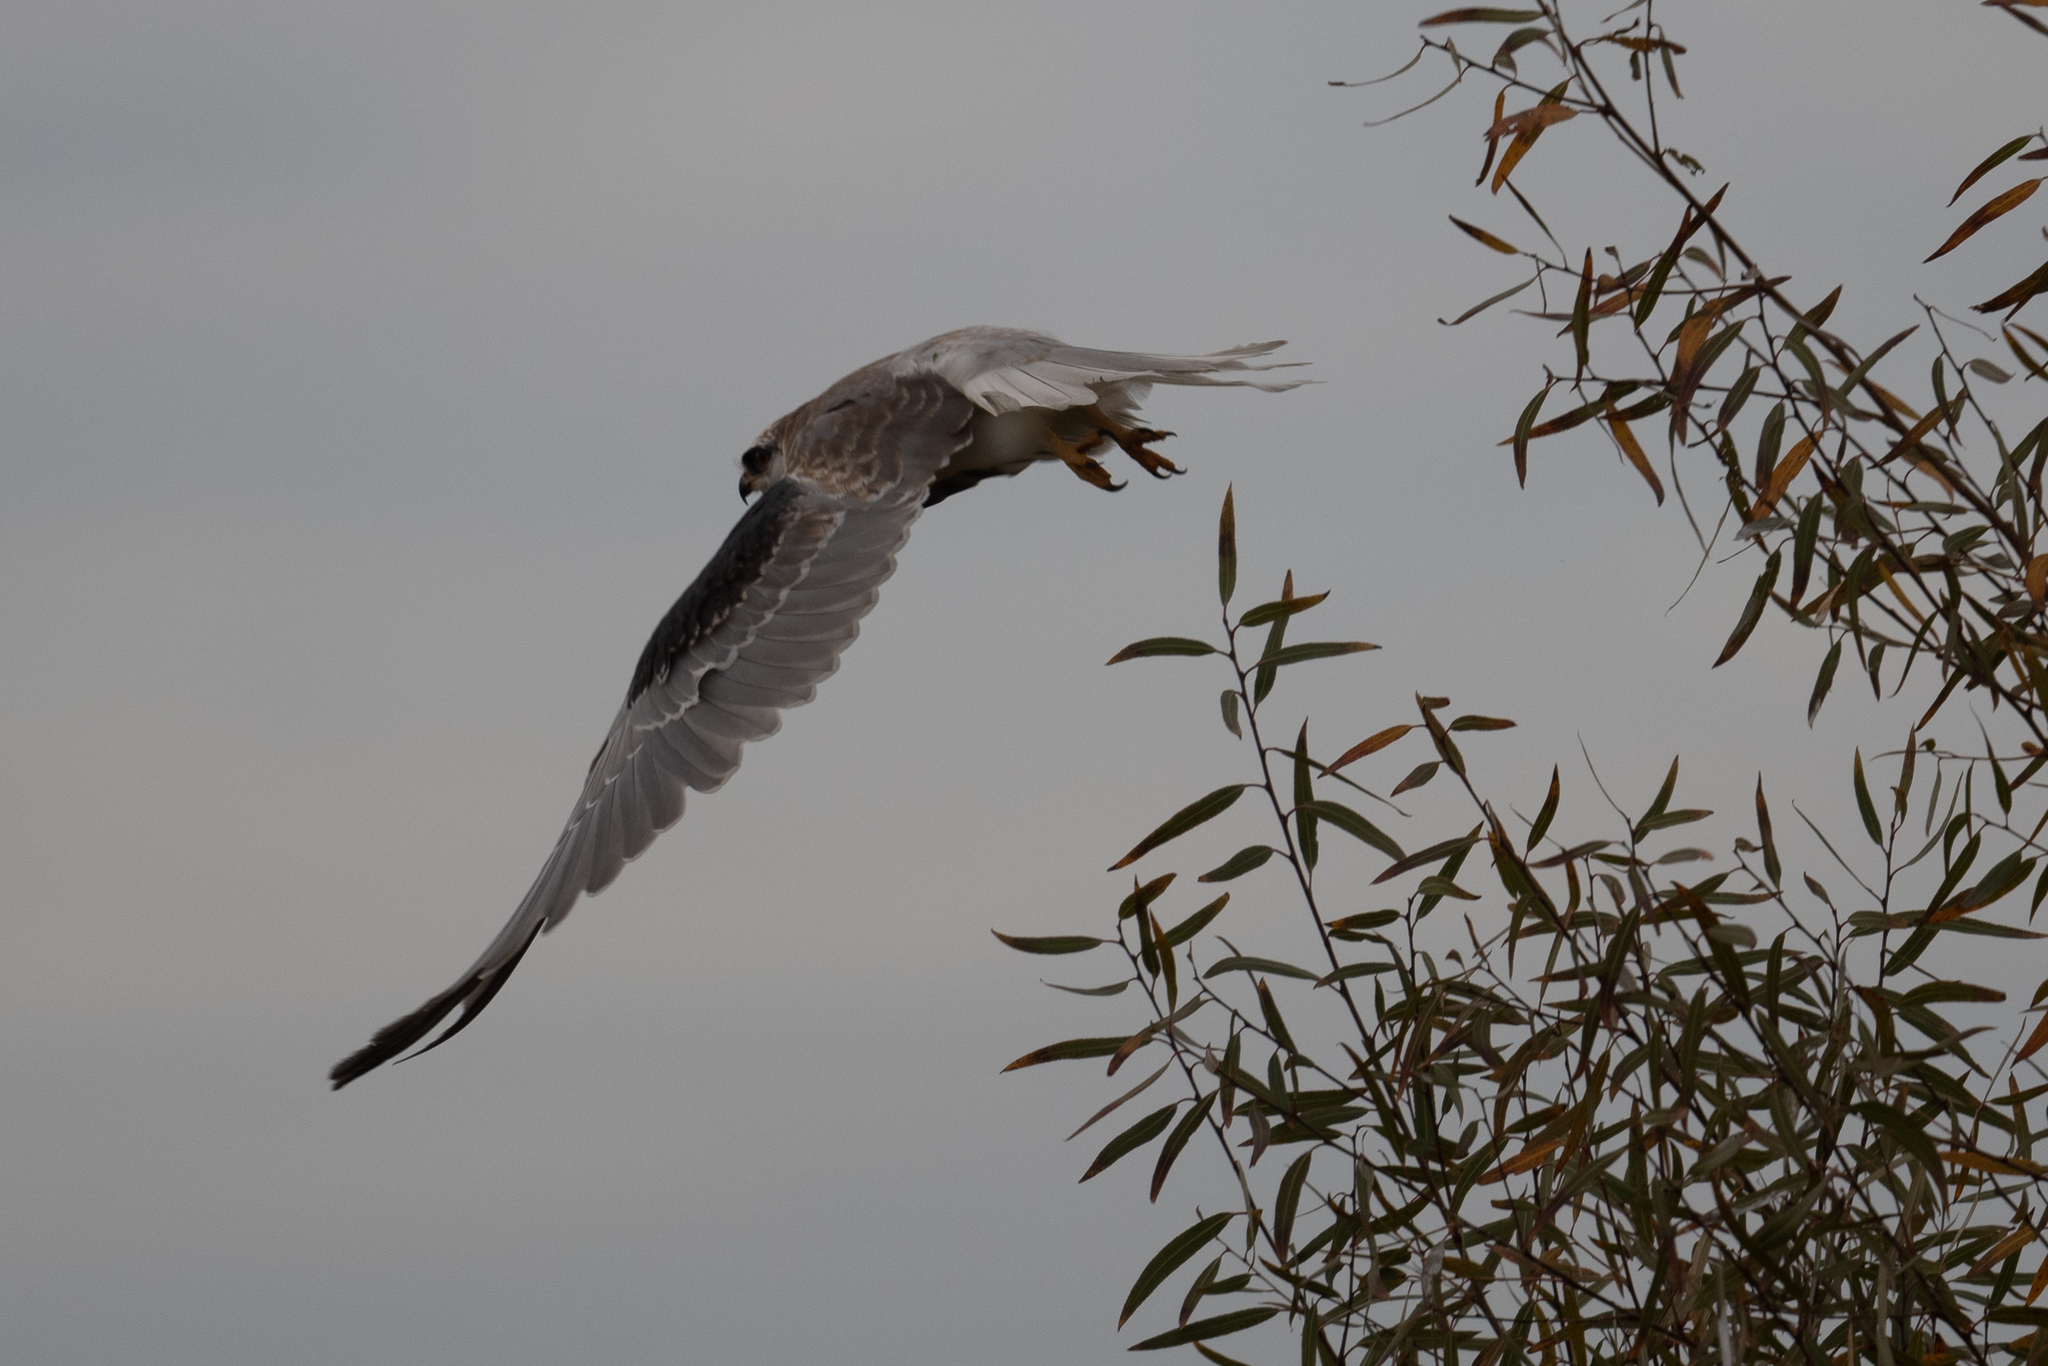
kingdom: Animalia
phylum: Chordata
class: Aves
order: Accipitriformes
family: Accipitridae
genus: Elanus
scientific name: Elanus leucurus
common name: White-tailed kite
